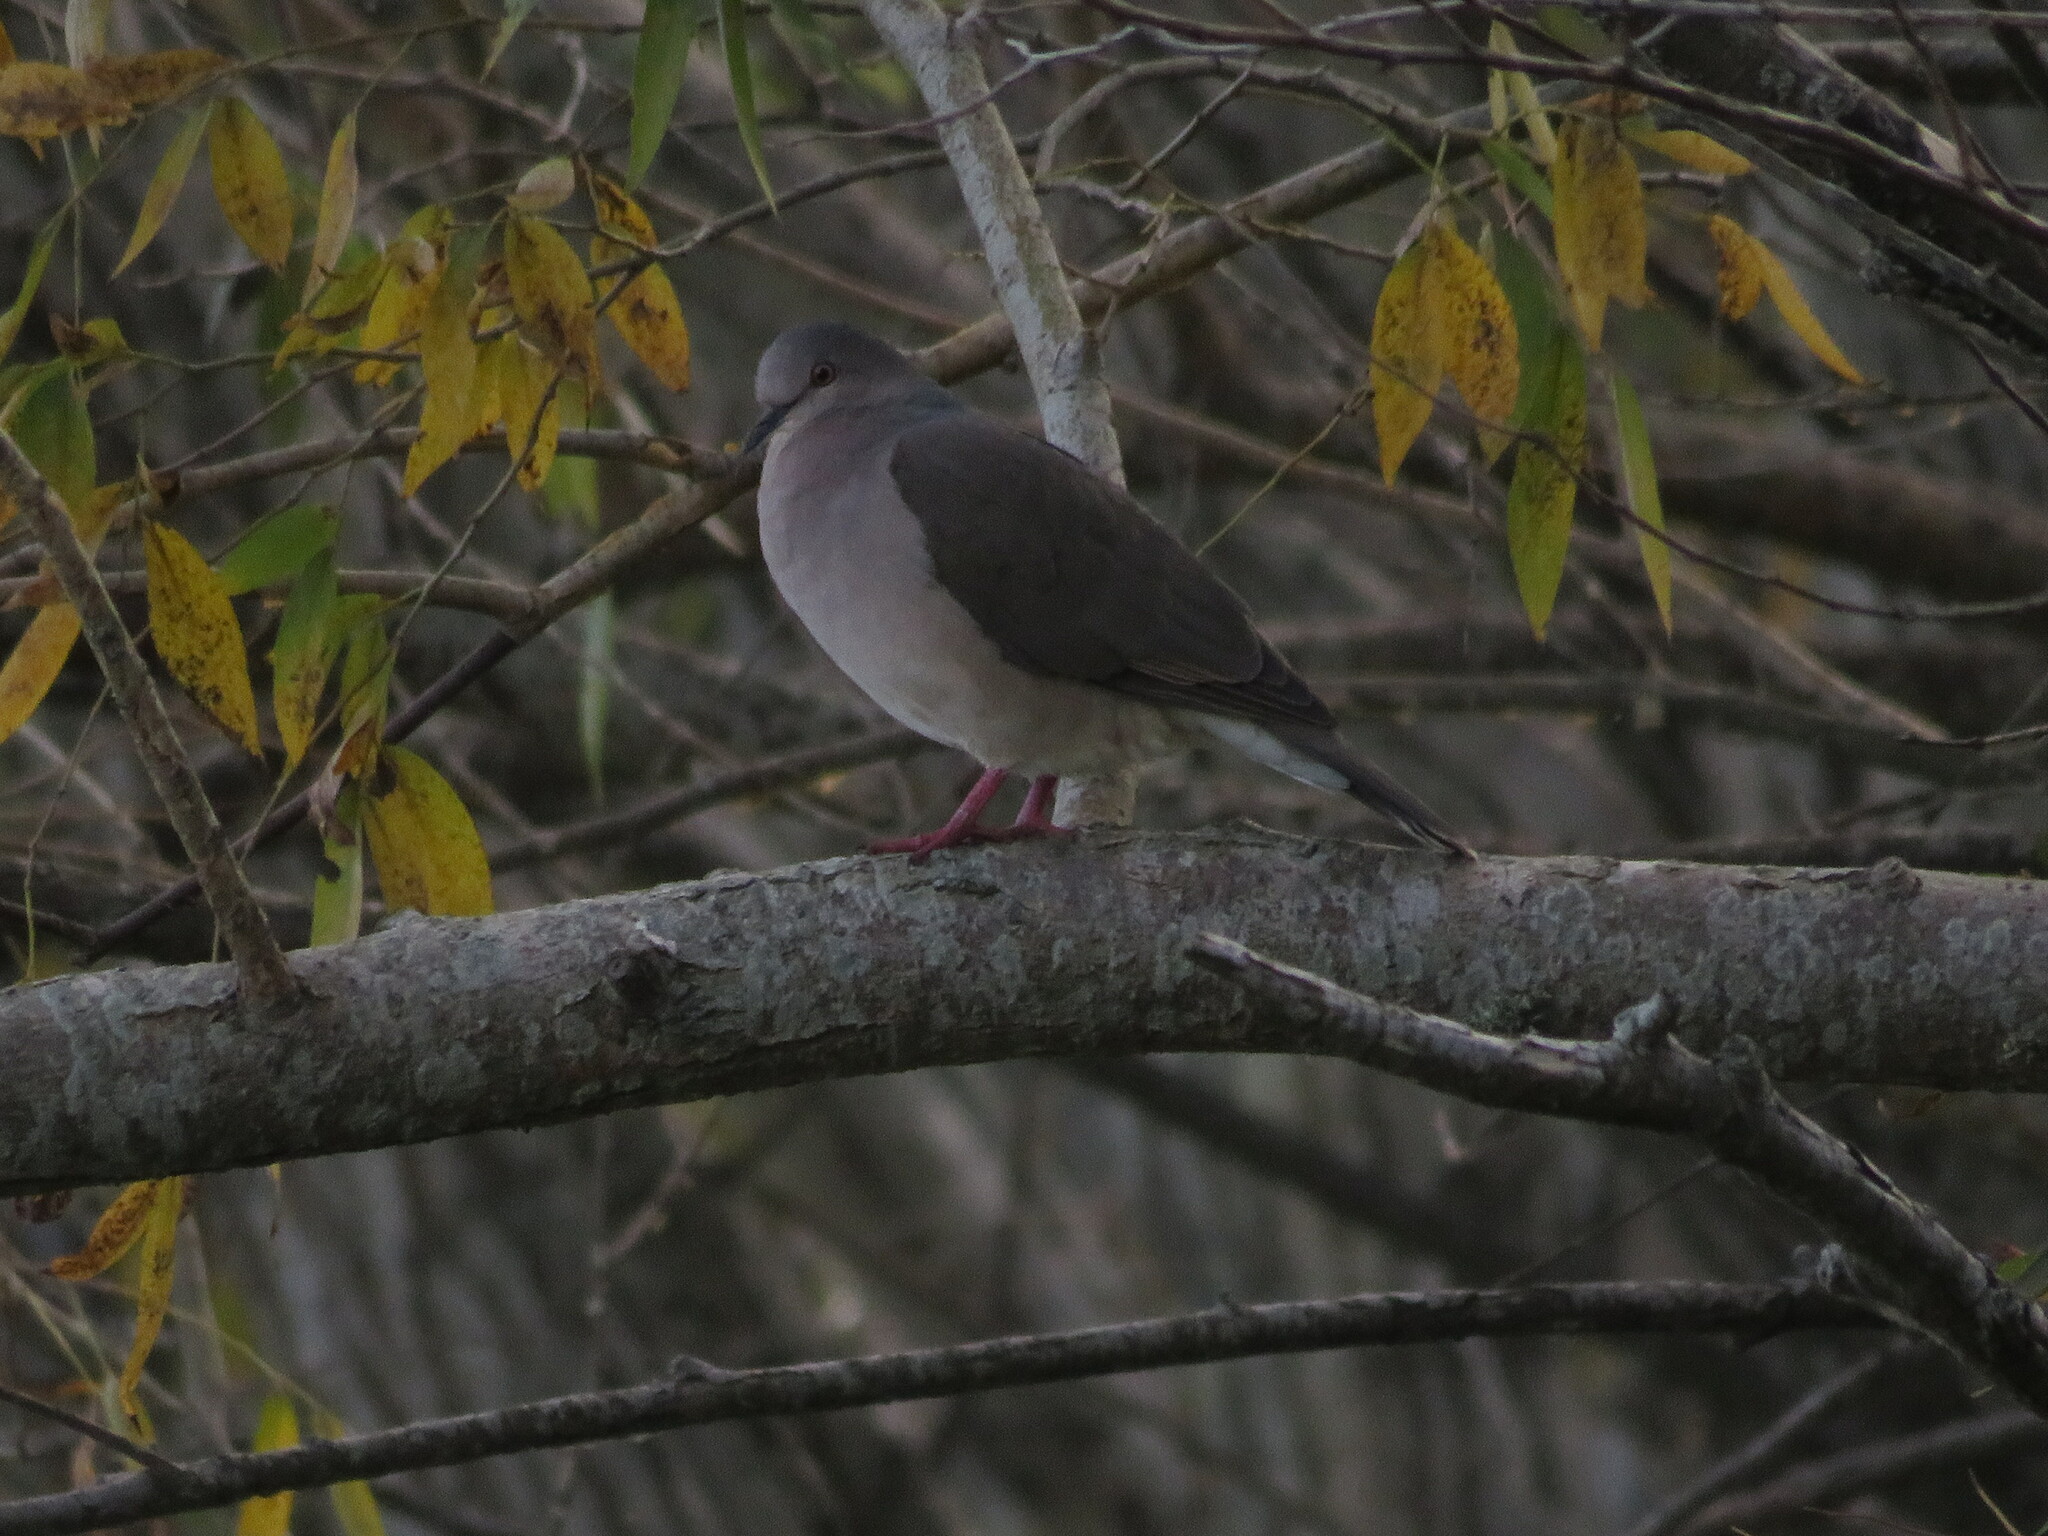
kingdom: Animalia
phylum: Chordata
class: Aves
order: Columbiformes
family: Columbidae
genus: Leptotila
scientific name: Leptotila verreauxi
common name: White-tipped dove
